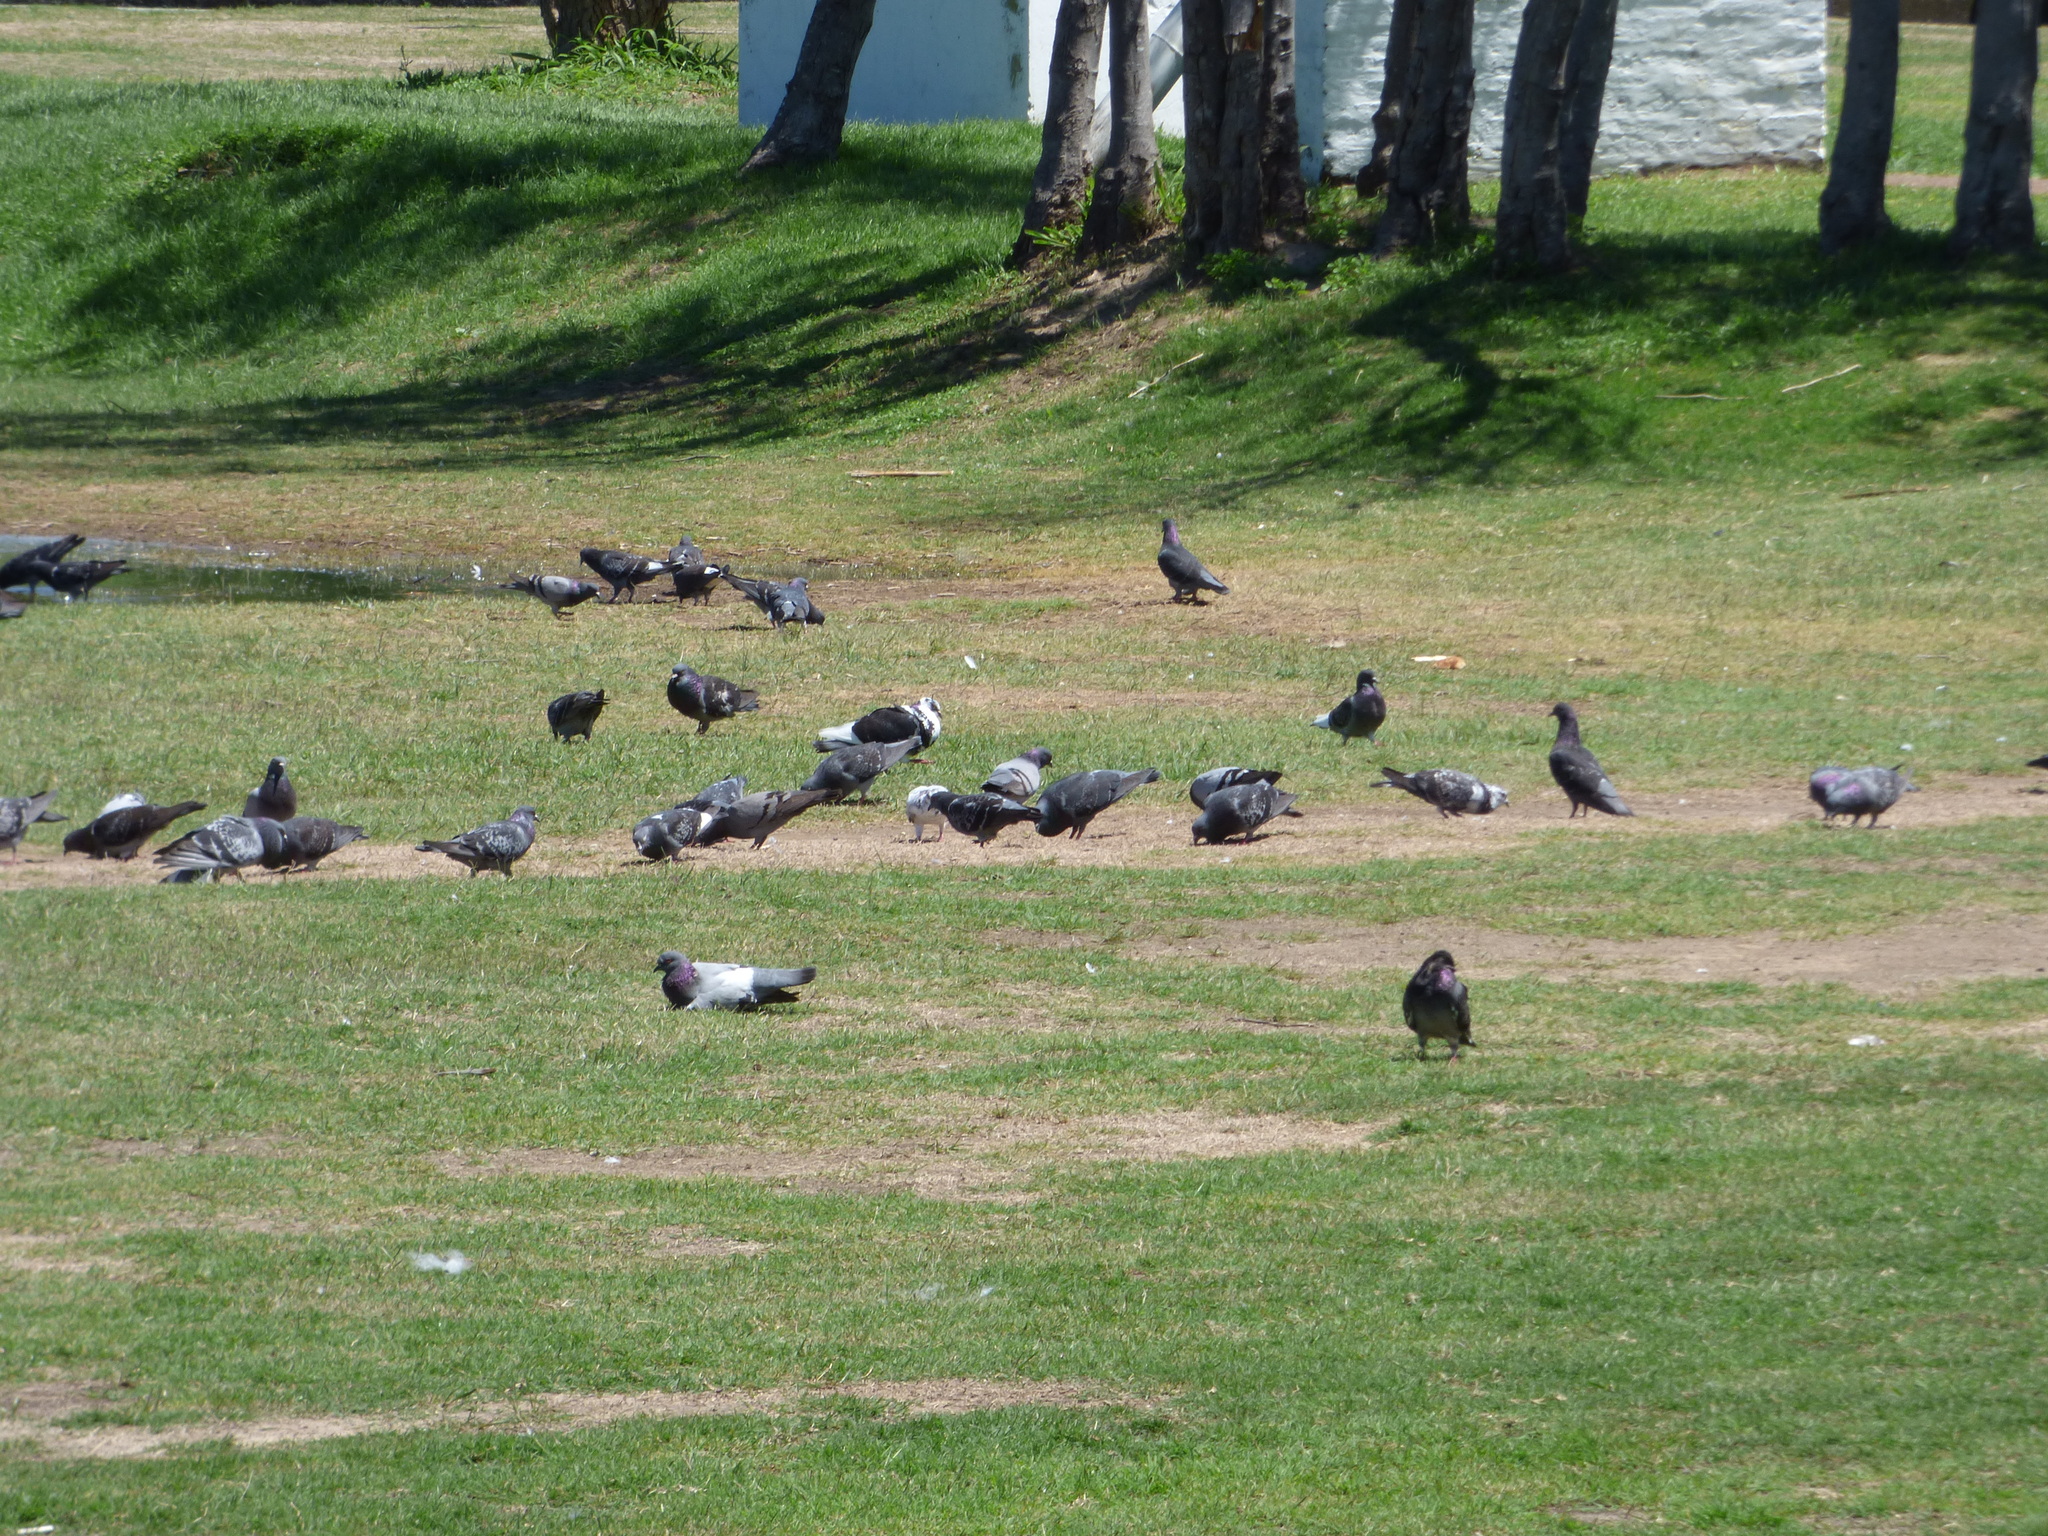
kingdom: Animalia
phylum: Chordata
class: Aves
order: Columbiformes
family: Columbidae
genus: Columba
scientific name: Columba livia
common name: Rock pigeon
